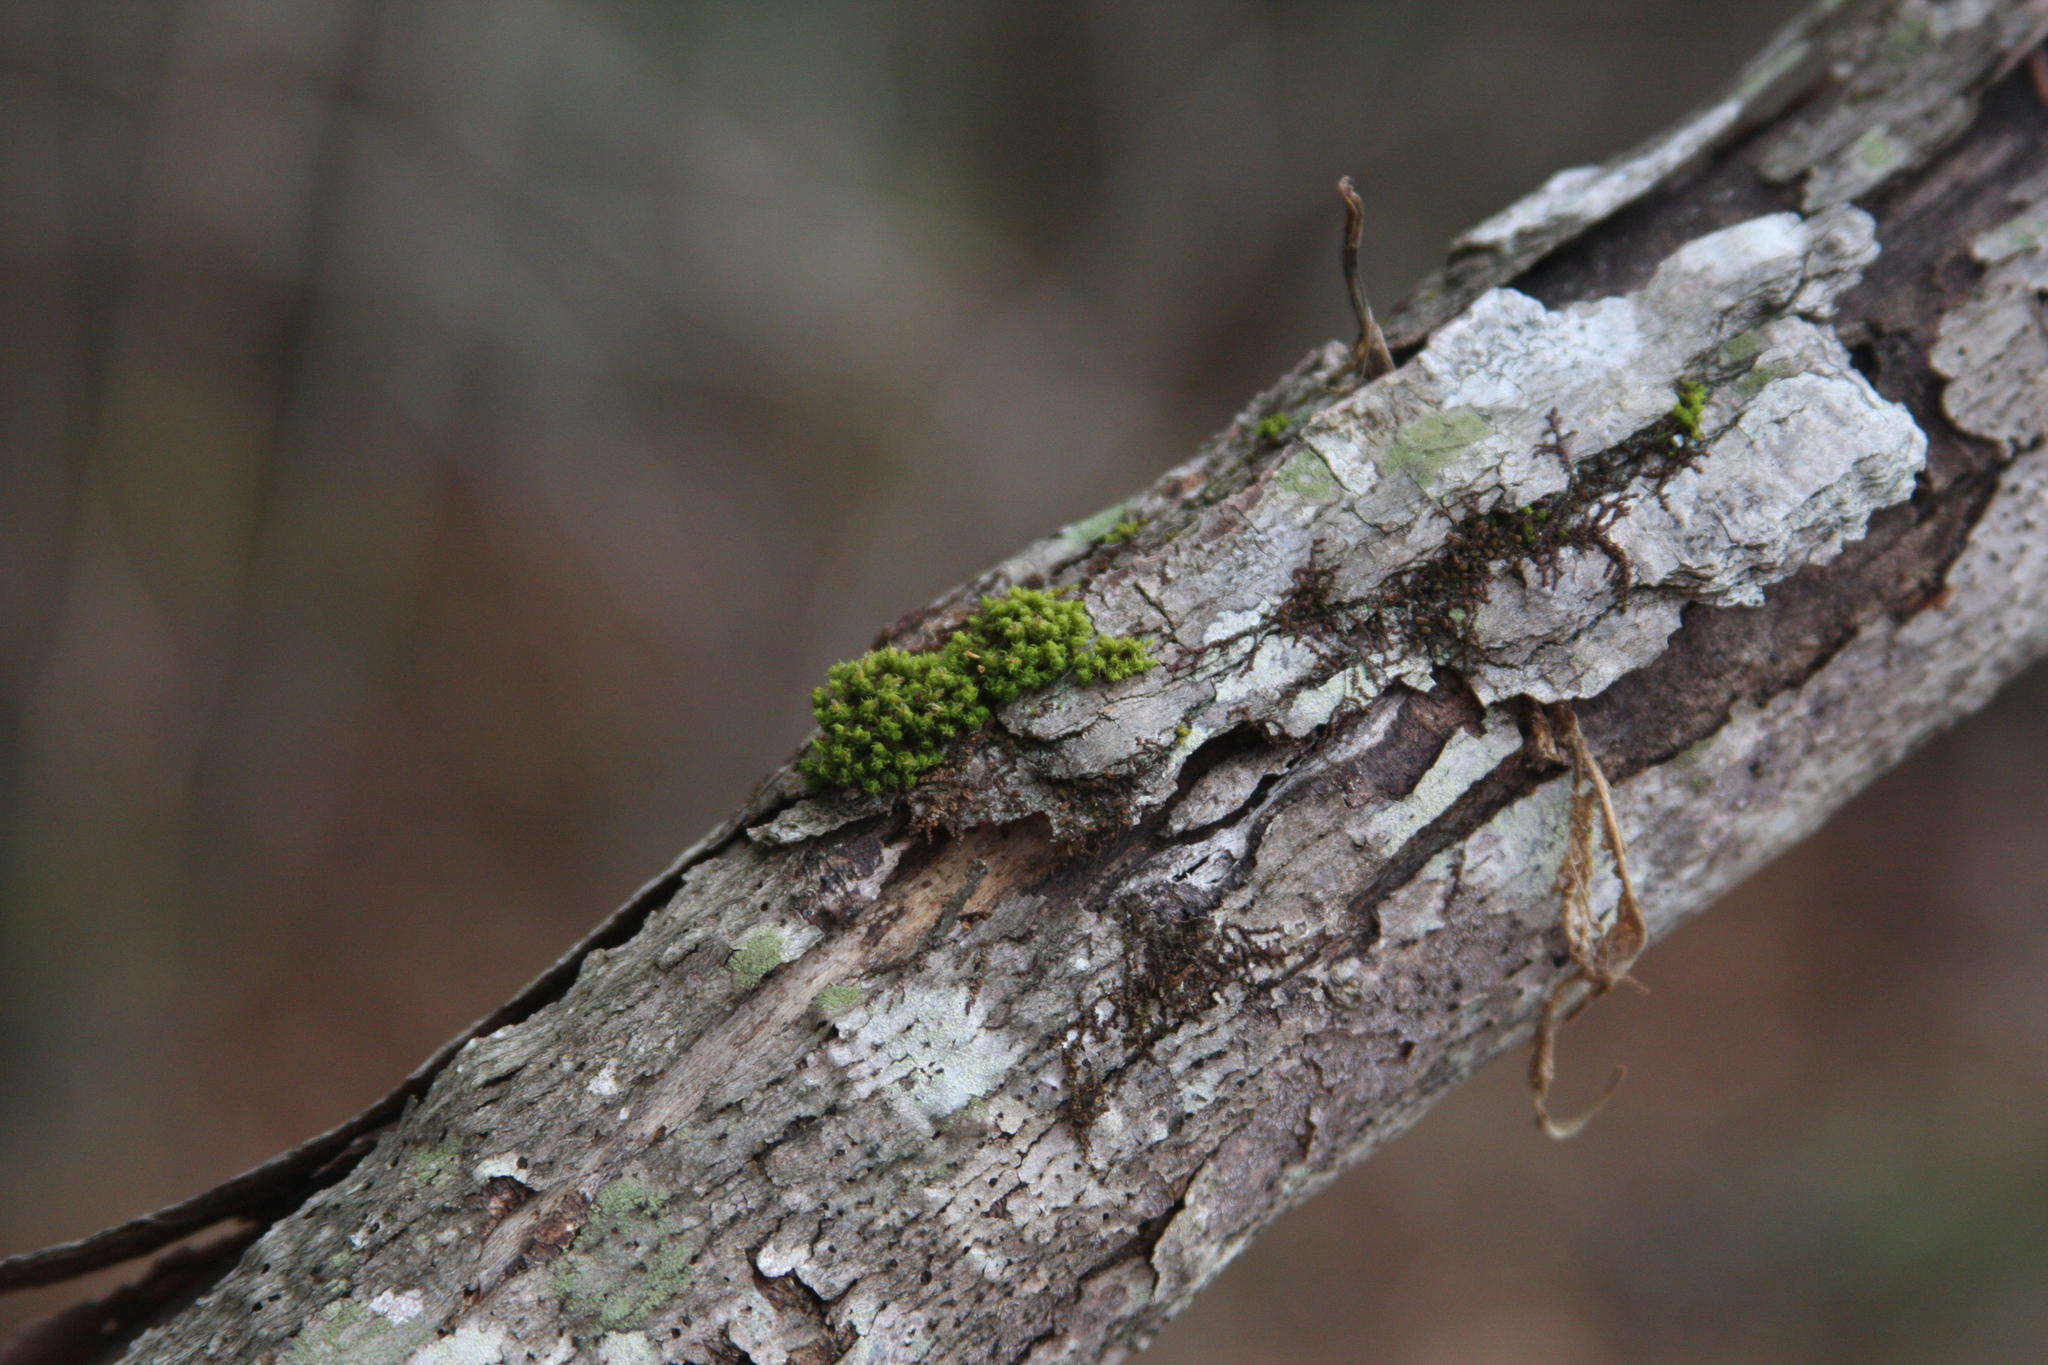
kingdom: Plantae
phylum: Bryophyta
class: Bryopsida
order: Orthotrichales
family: Orthotrichaceae
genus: Ulota
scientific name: Ulota crispa
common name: Crisped pincushion moss
